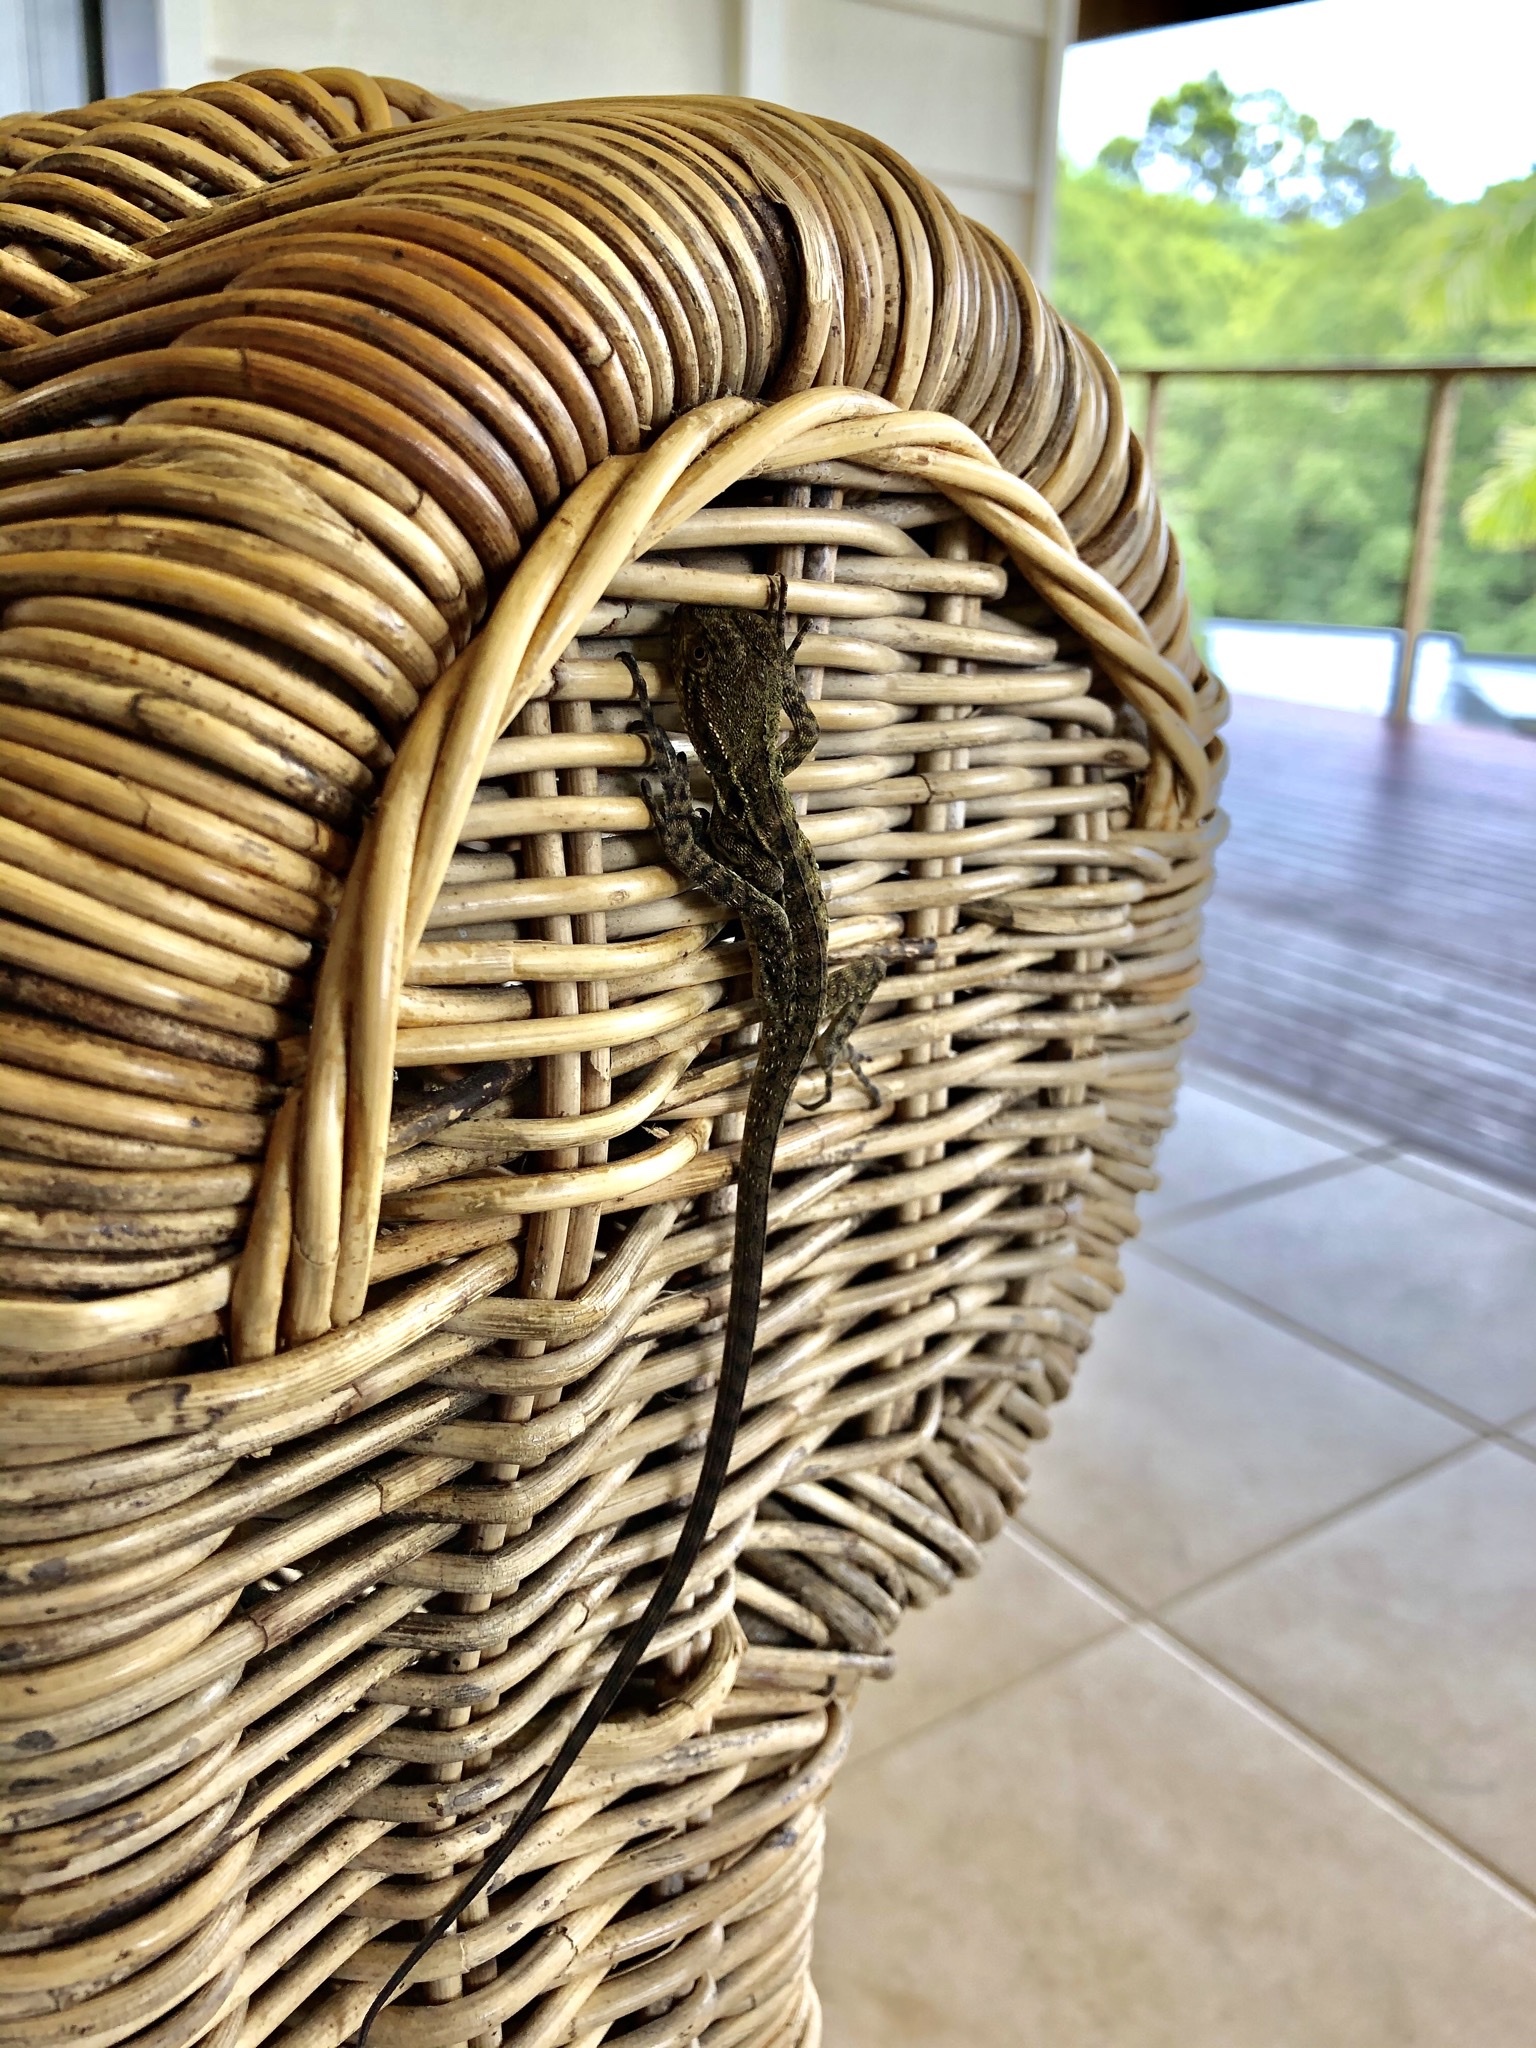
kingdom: Animalia
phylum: Chordata
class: Squamata
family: Agamidae
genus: Intellagama
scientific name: Intellagama lesueurii
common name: Eastern water dragon
